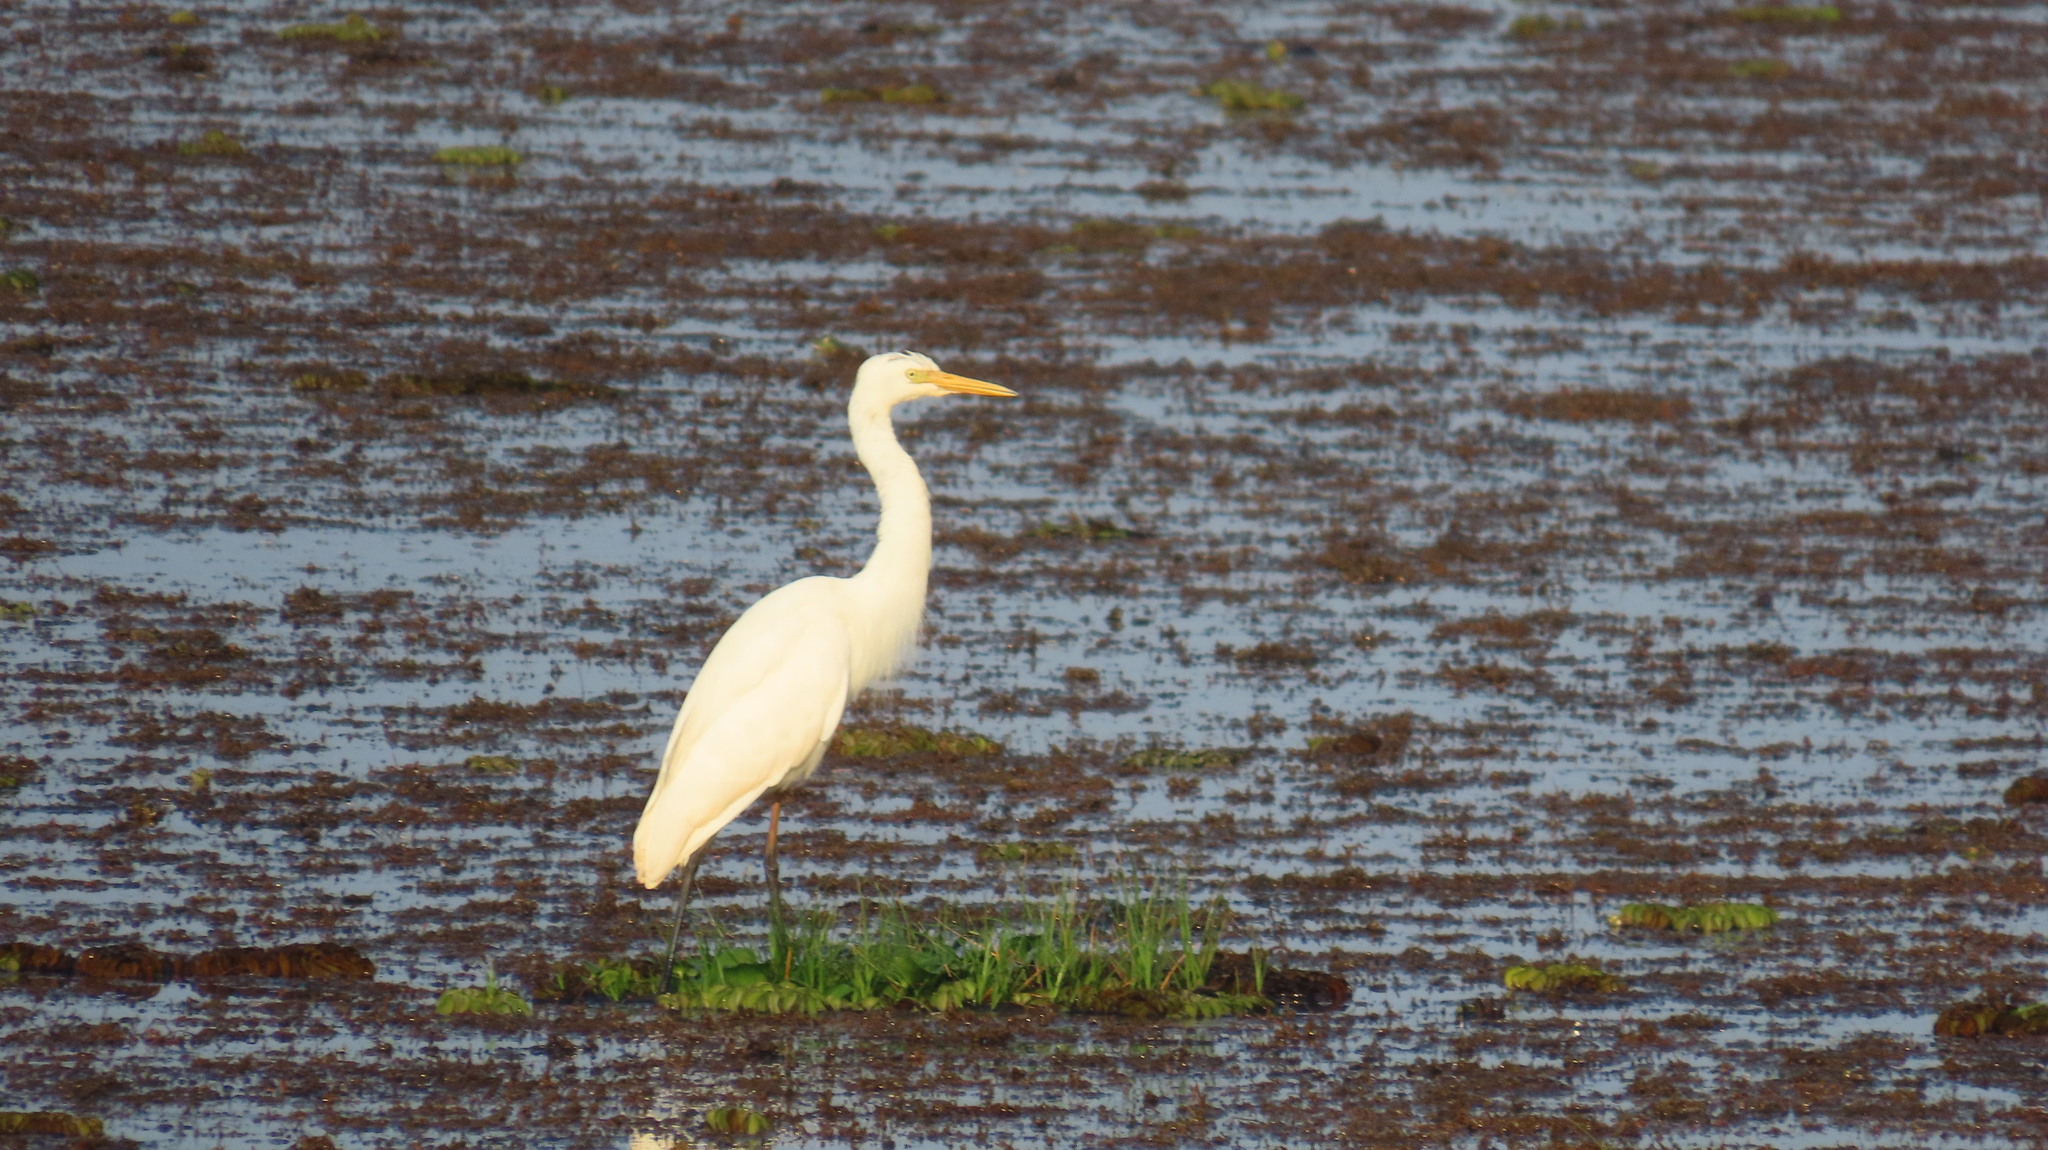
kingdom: Animalia
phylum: Chordata
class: Aves
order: Pelecaniformes
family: Ardeidae
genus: Egretta
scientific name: Egretta intermedia
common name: Intermediate egret
